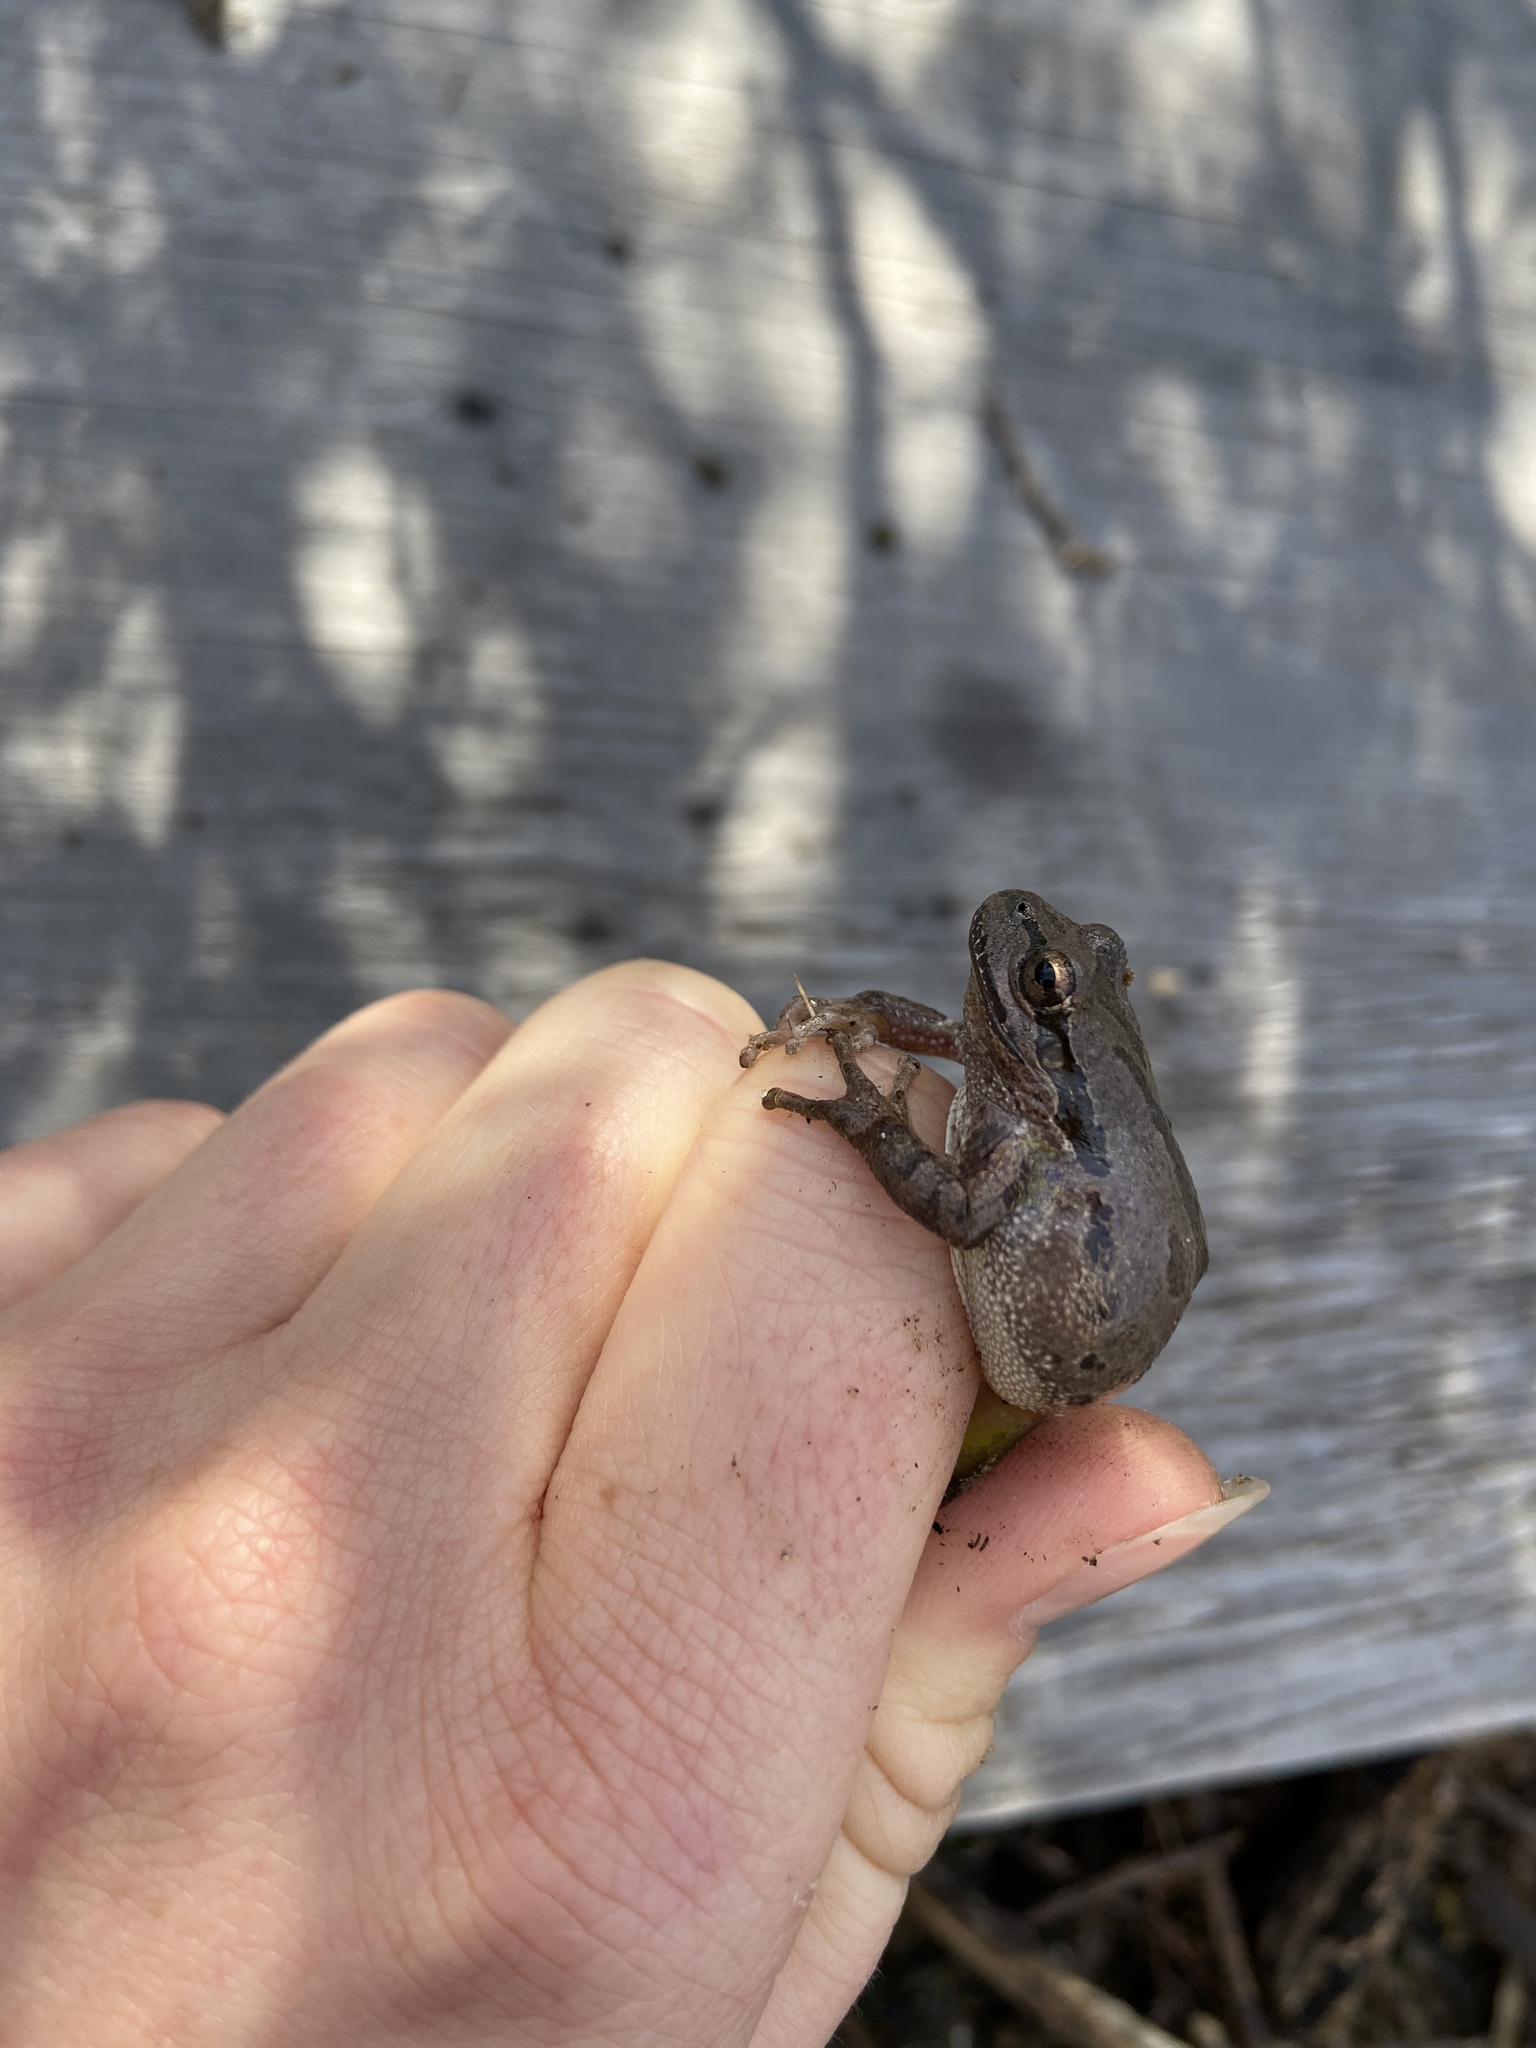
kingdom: Animalia
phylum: Chordata
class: Amphibia
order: Anura
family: Hylidae
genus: Pseudacris
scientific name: Pseudacris regilla
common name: Pacific chorus frog
